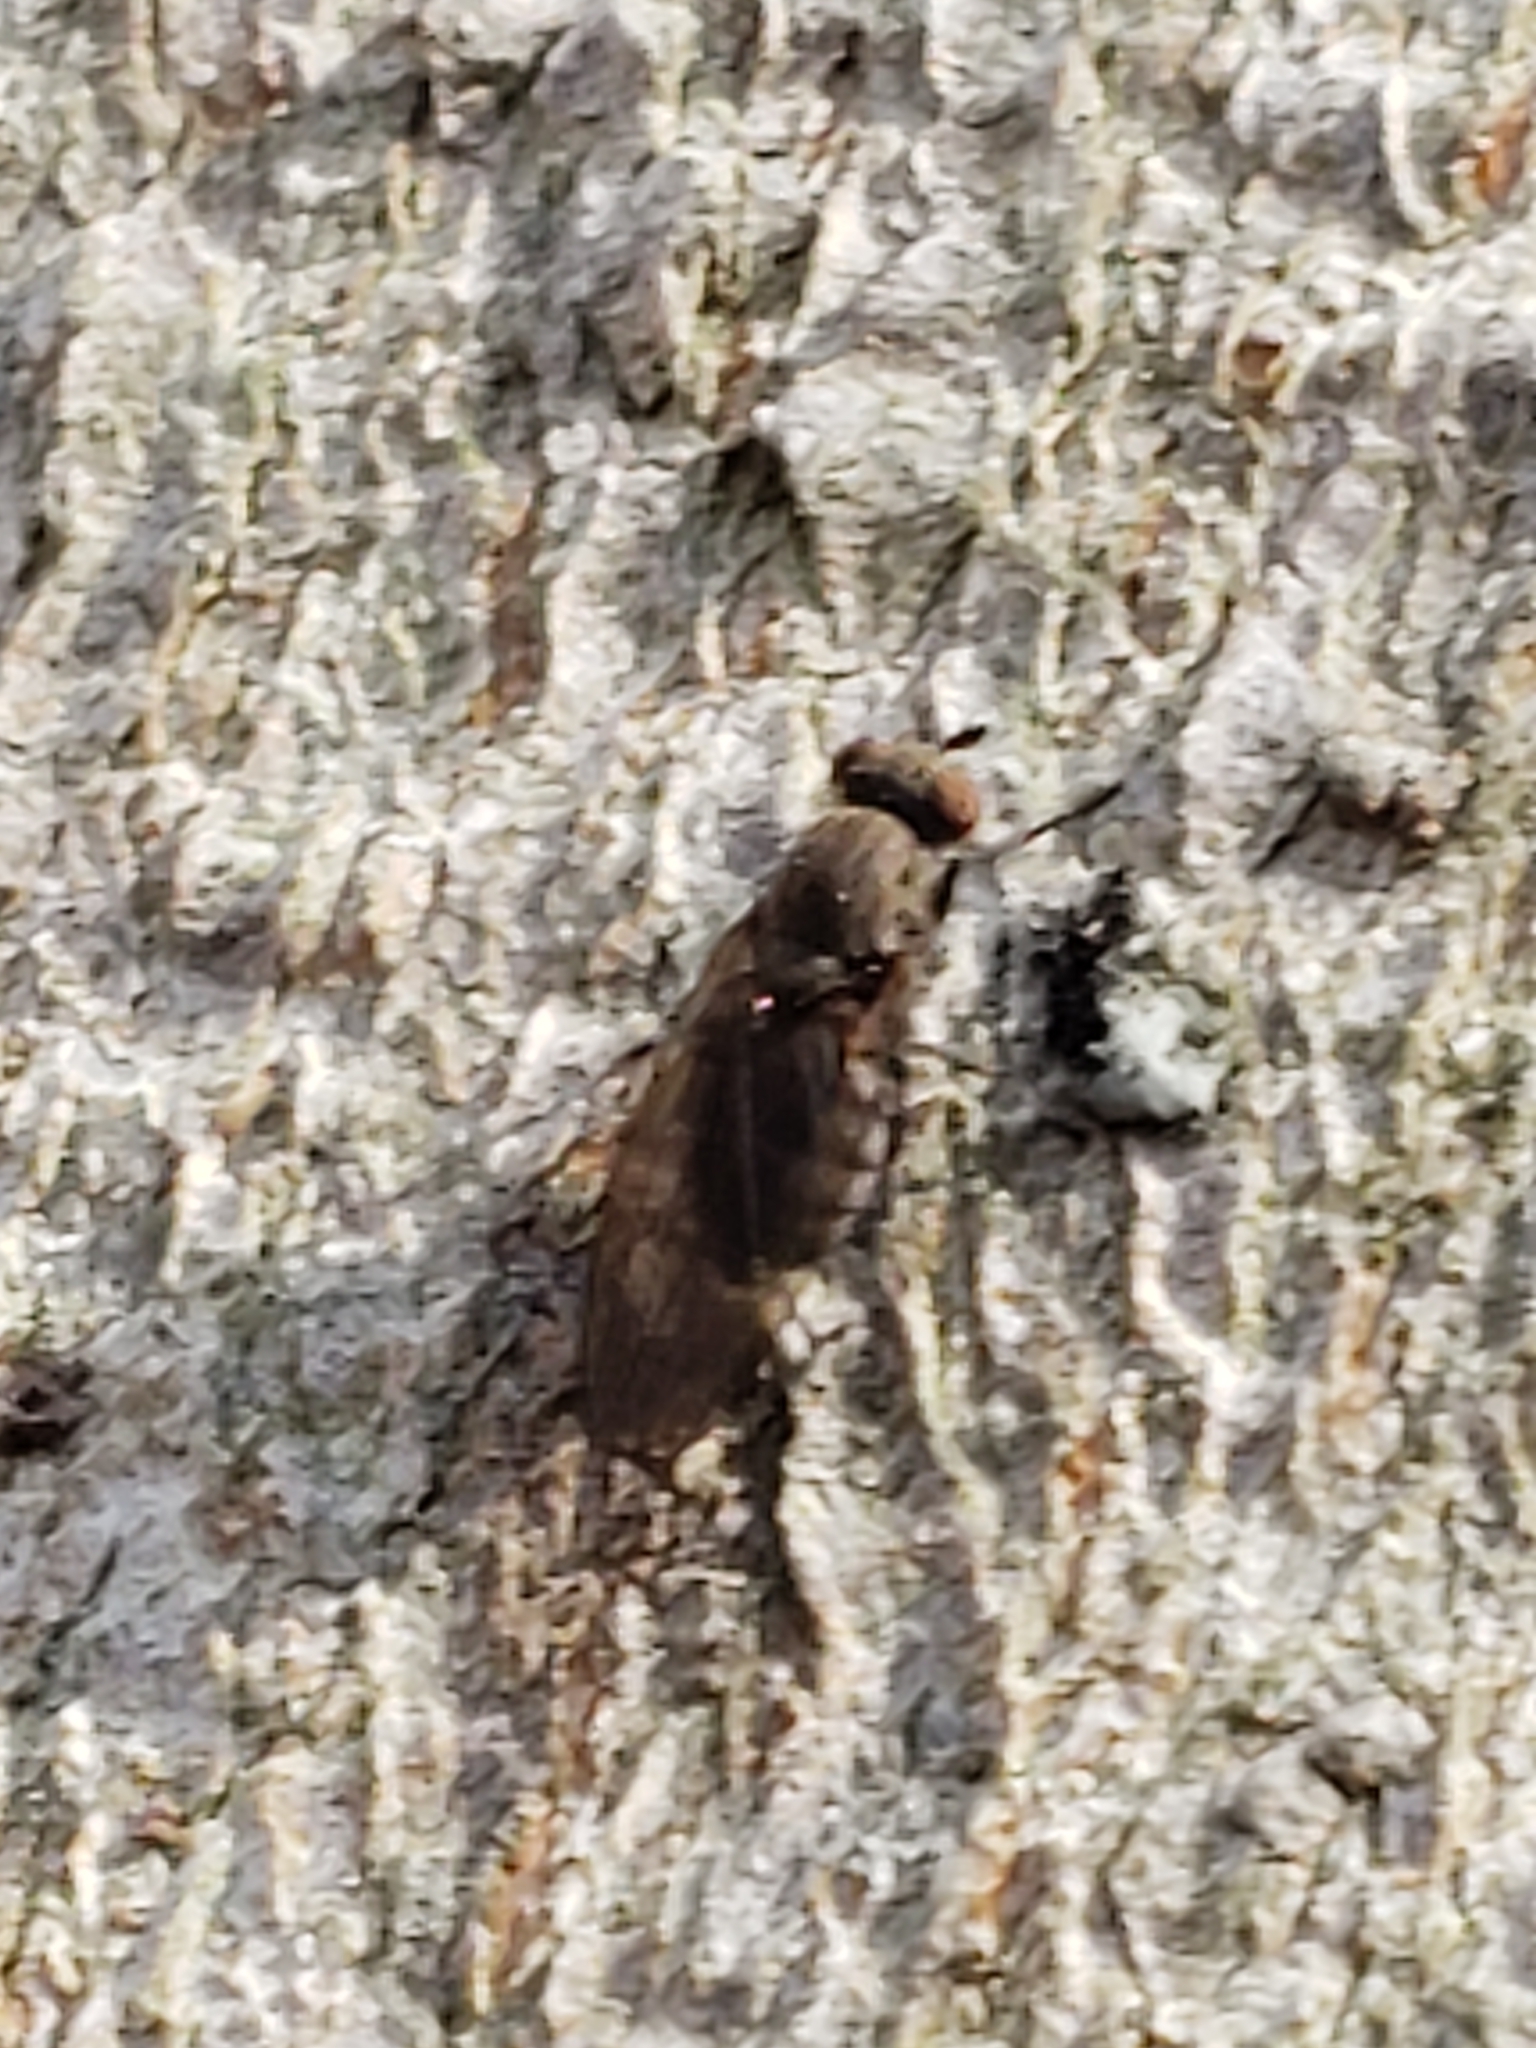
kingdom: Animalia
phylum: Arthropoda
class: Insecta
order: Diptera
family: Lauxaniidae
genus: Sapromyza
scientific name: Sapromyza brachysoma
